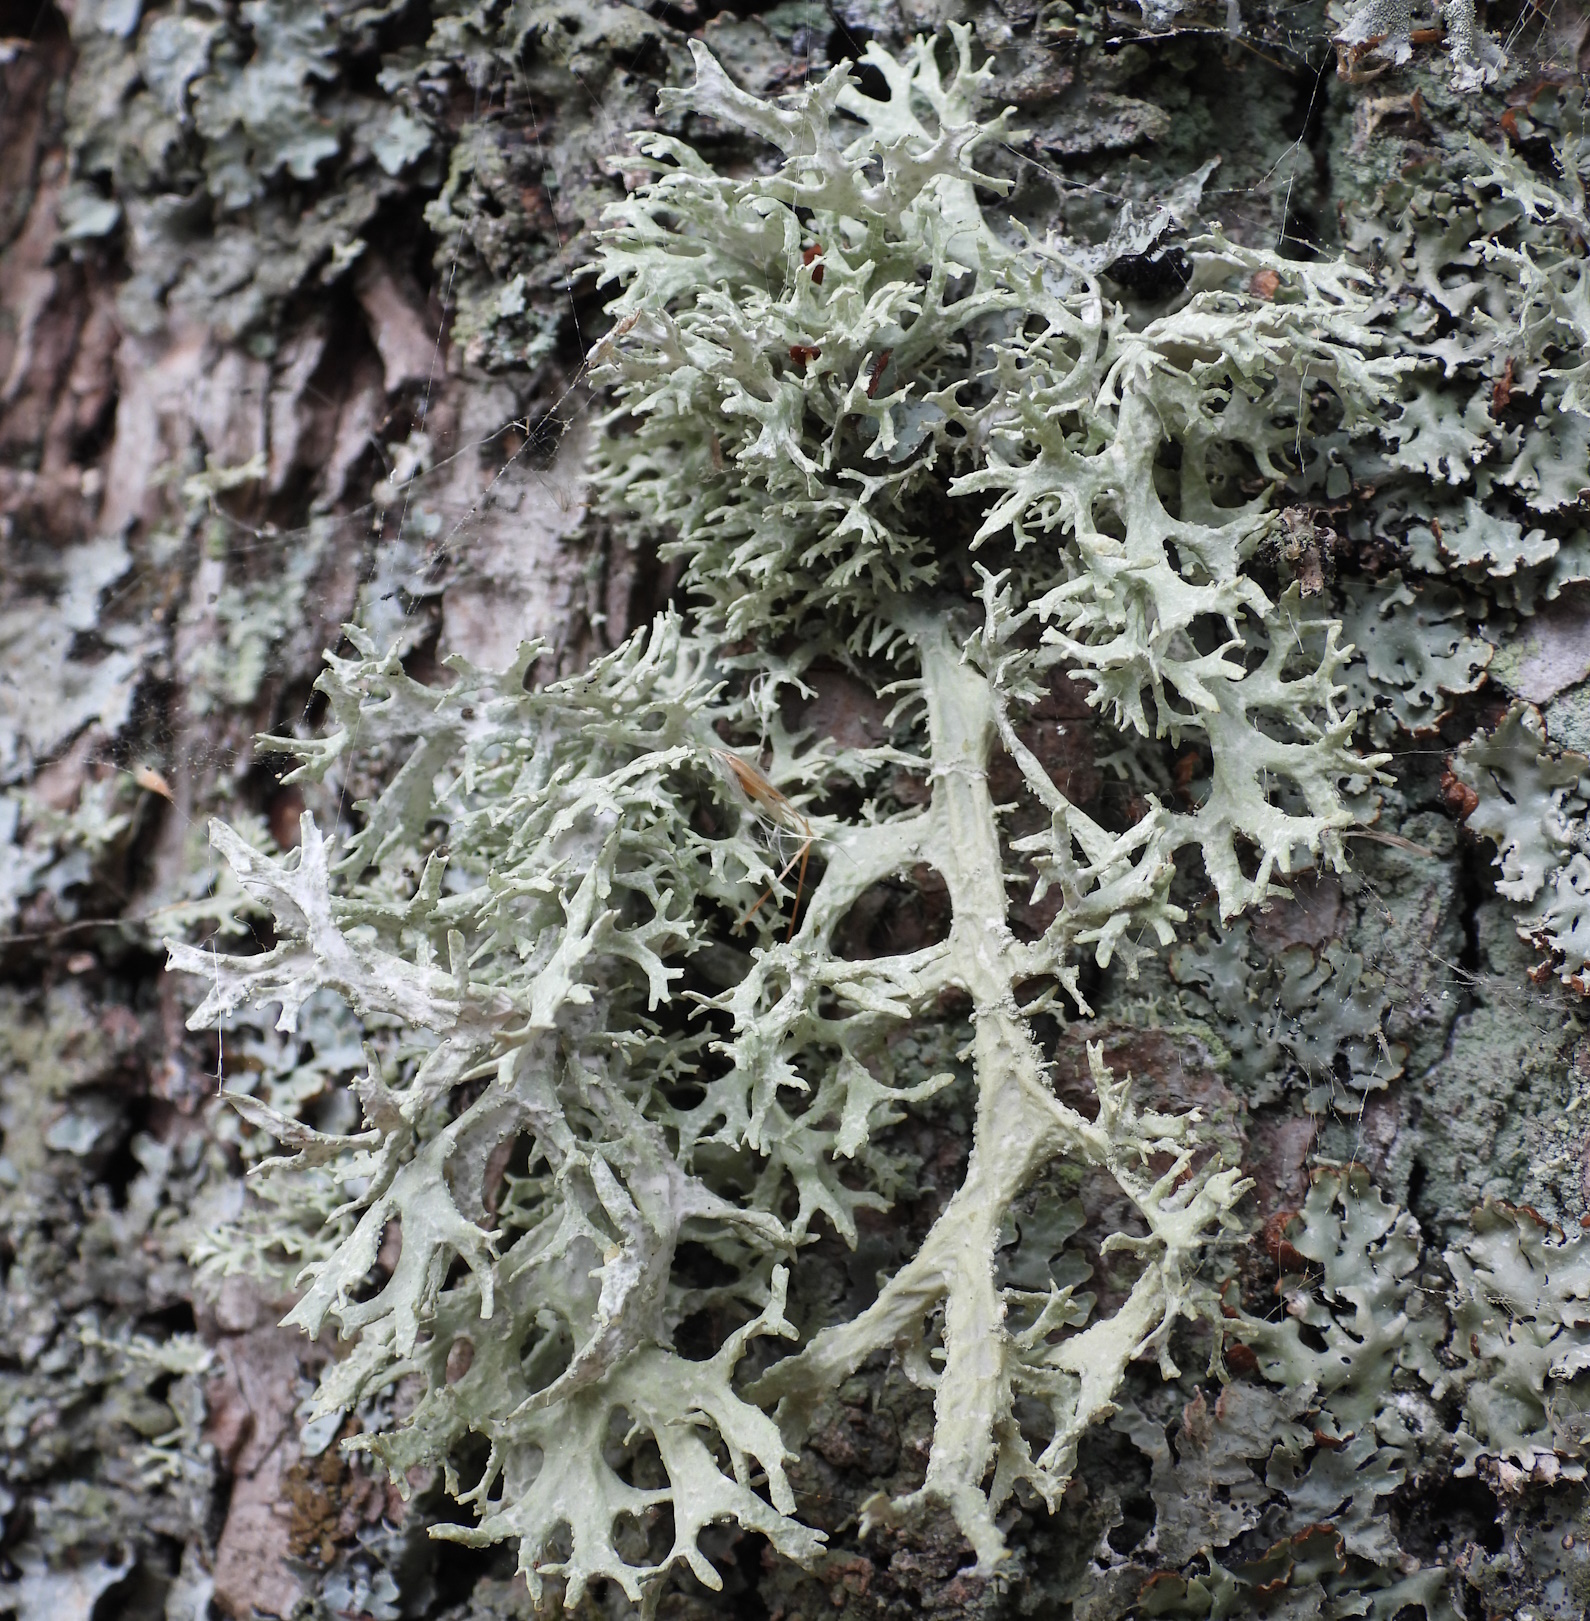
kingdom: Fungi
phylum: Ascomycota
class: Lecanoromycetes
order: Lecanorales
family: Parmeliaceae
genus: Evernia
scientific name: Evernia prunastri
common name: Oak moss
